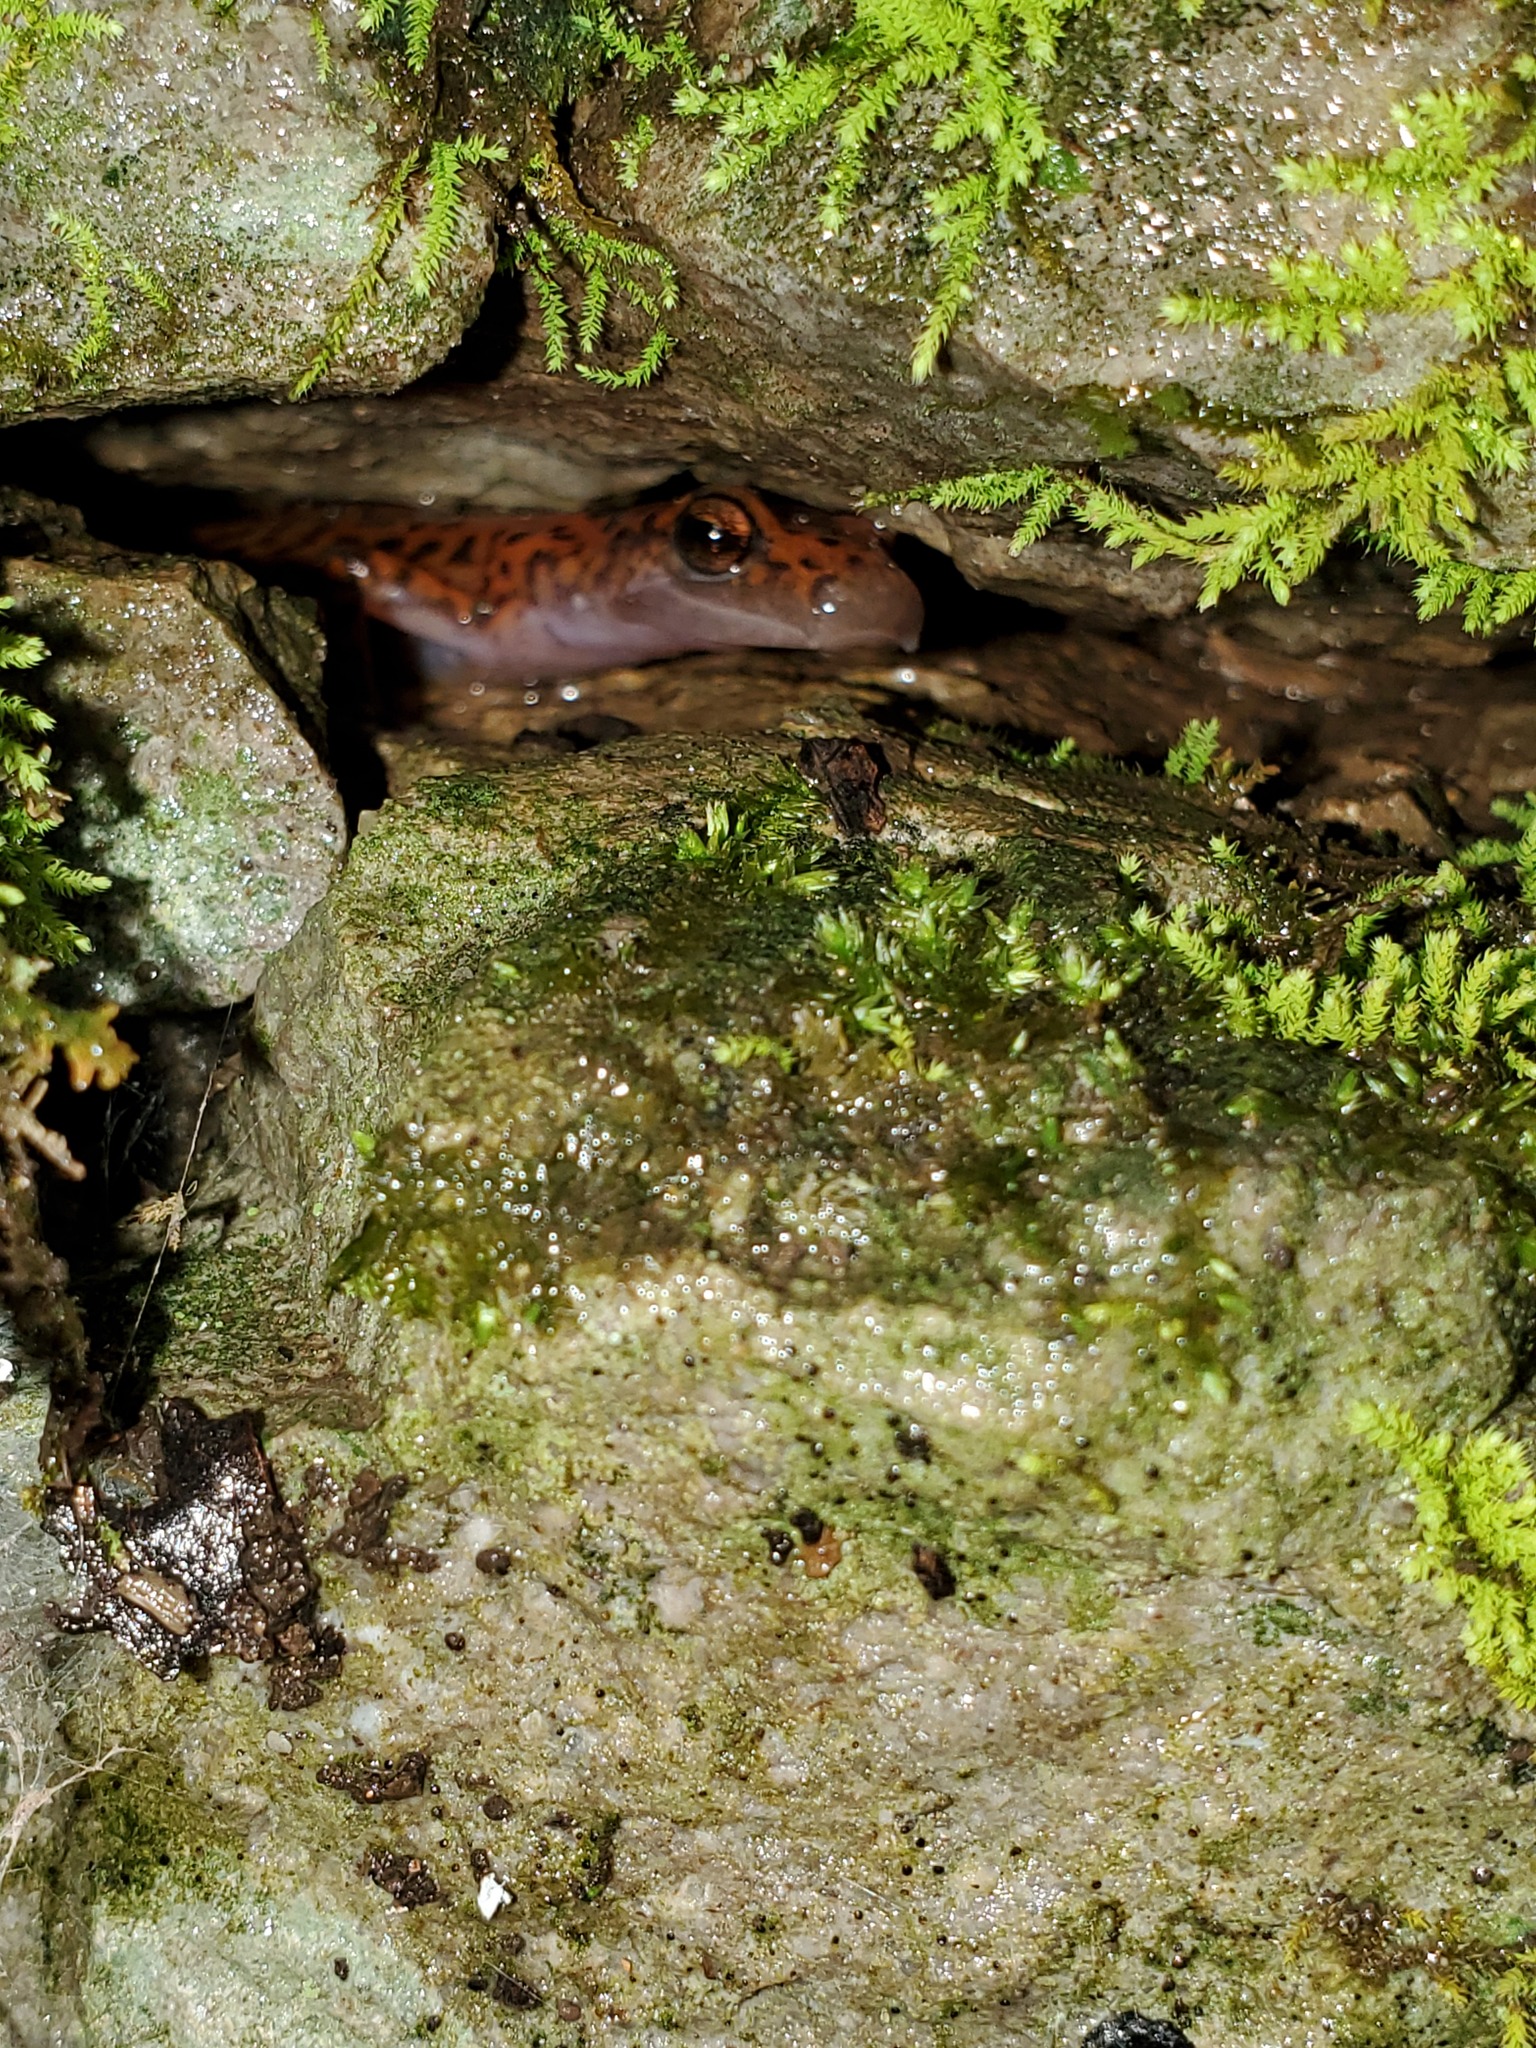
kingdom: Animalia
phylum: Chordata
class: Amphibia
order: Caudata
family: Plethodontidae
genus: Eurycea
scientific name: Eurycea lucifuga
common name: Cave salamander
